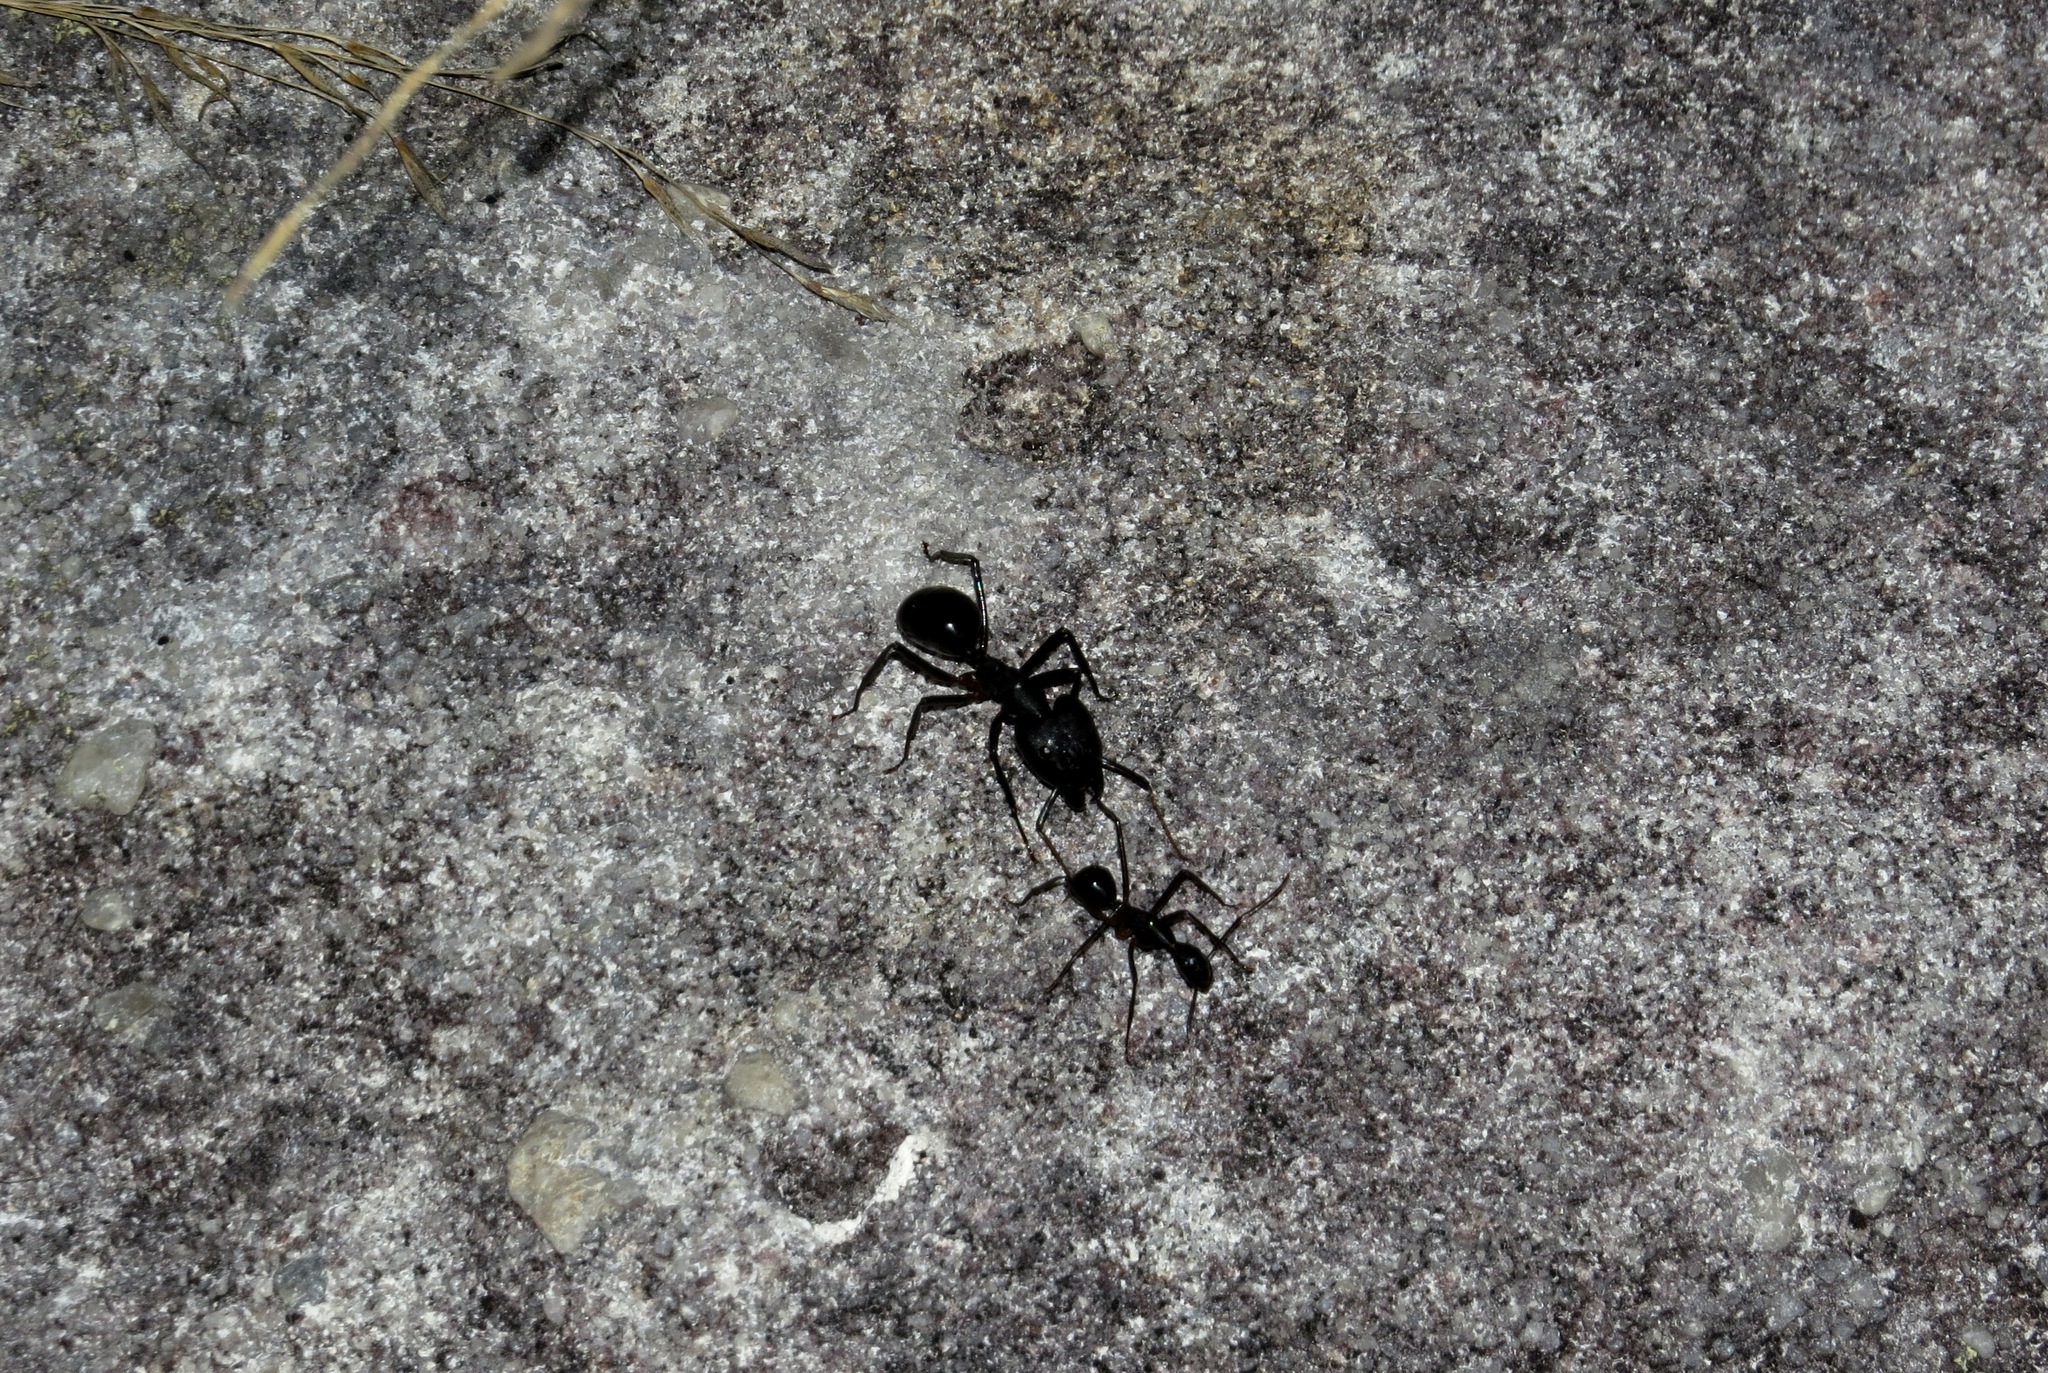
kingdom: Animalia
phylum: Arthropoda
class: Insecta
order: Hymenoptera
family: Formicidae
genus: Camponotus
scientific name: Camponotus gouldi
